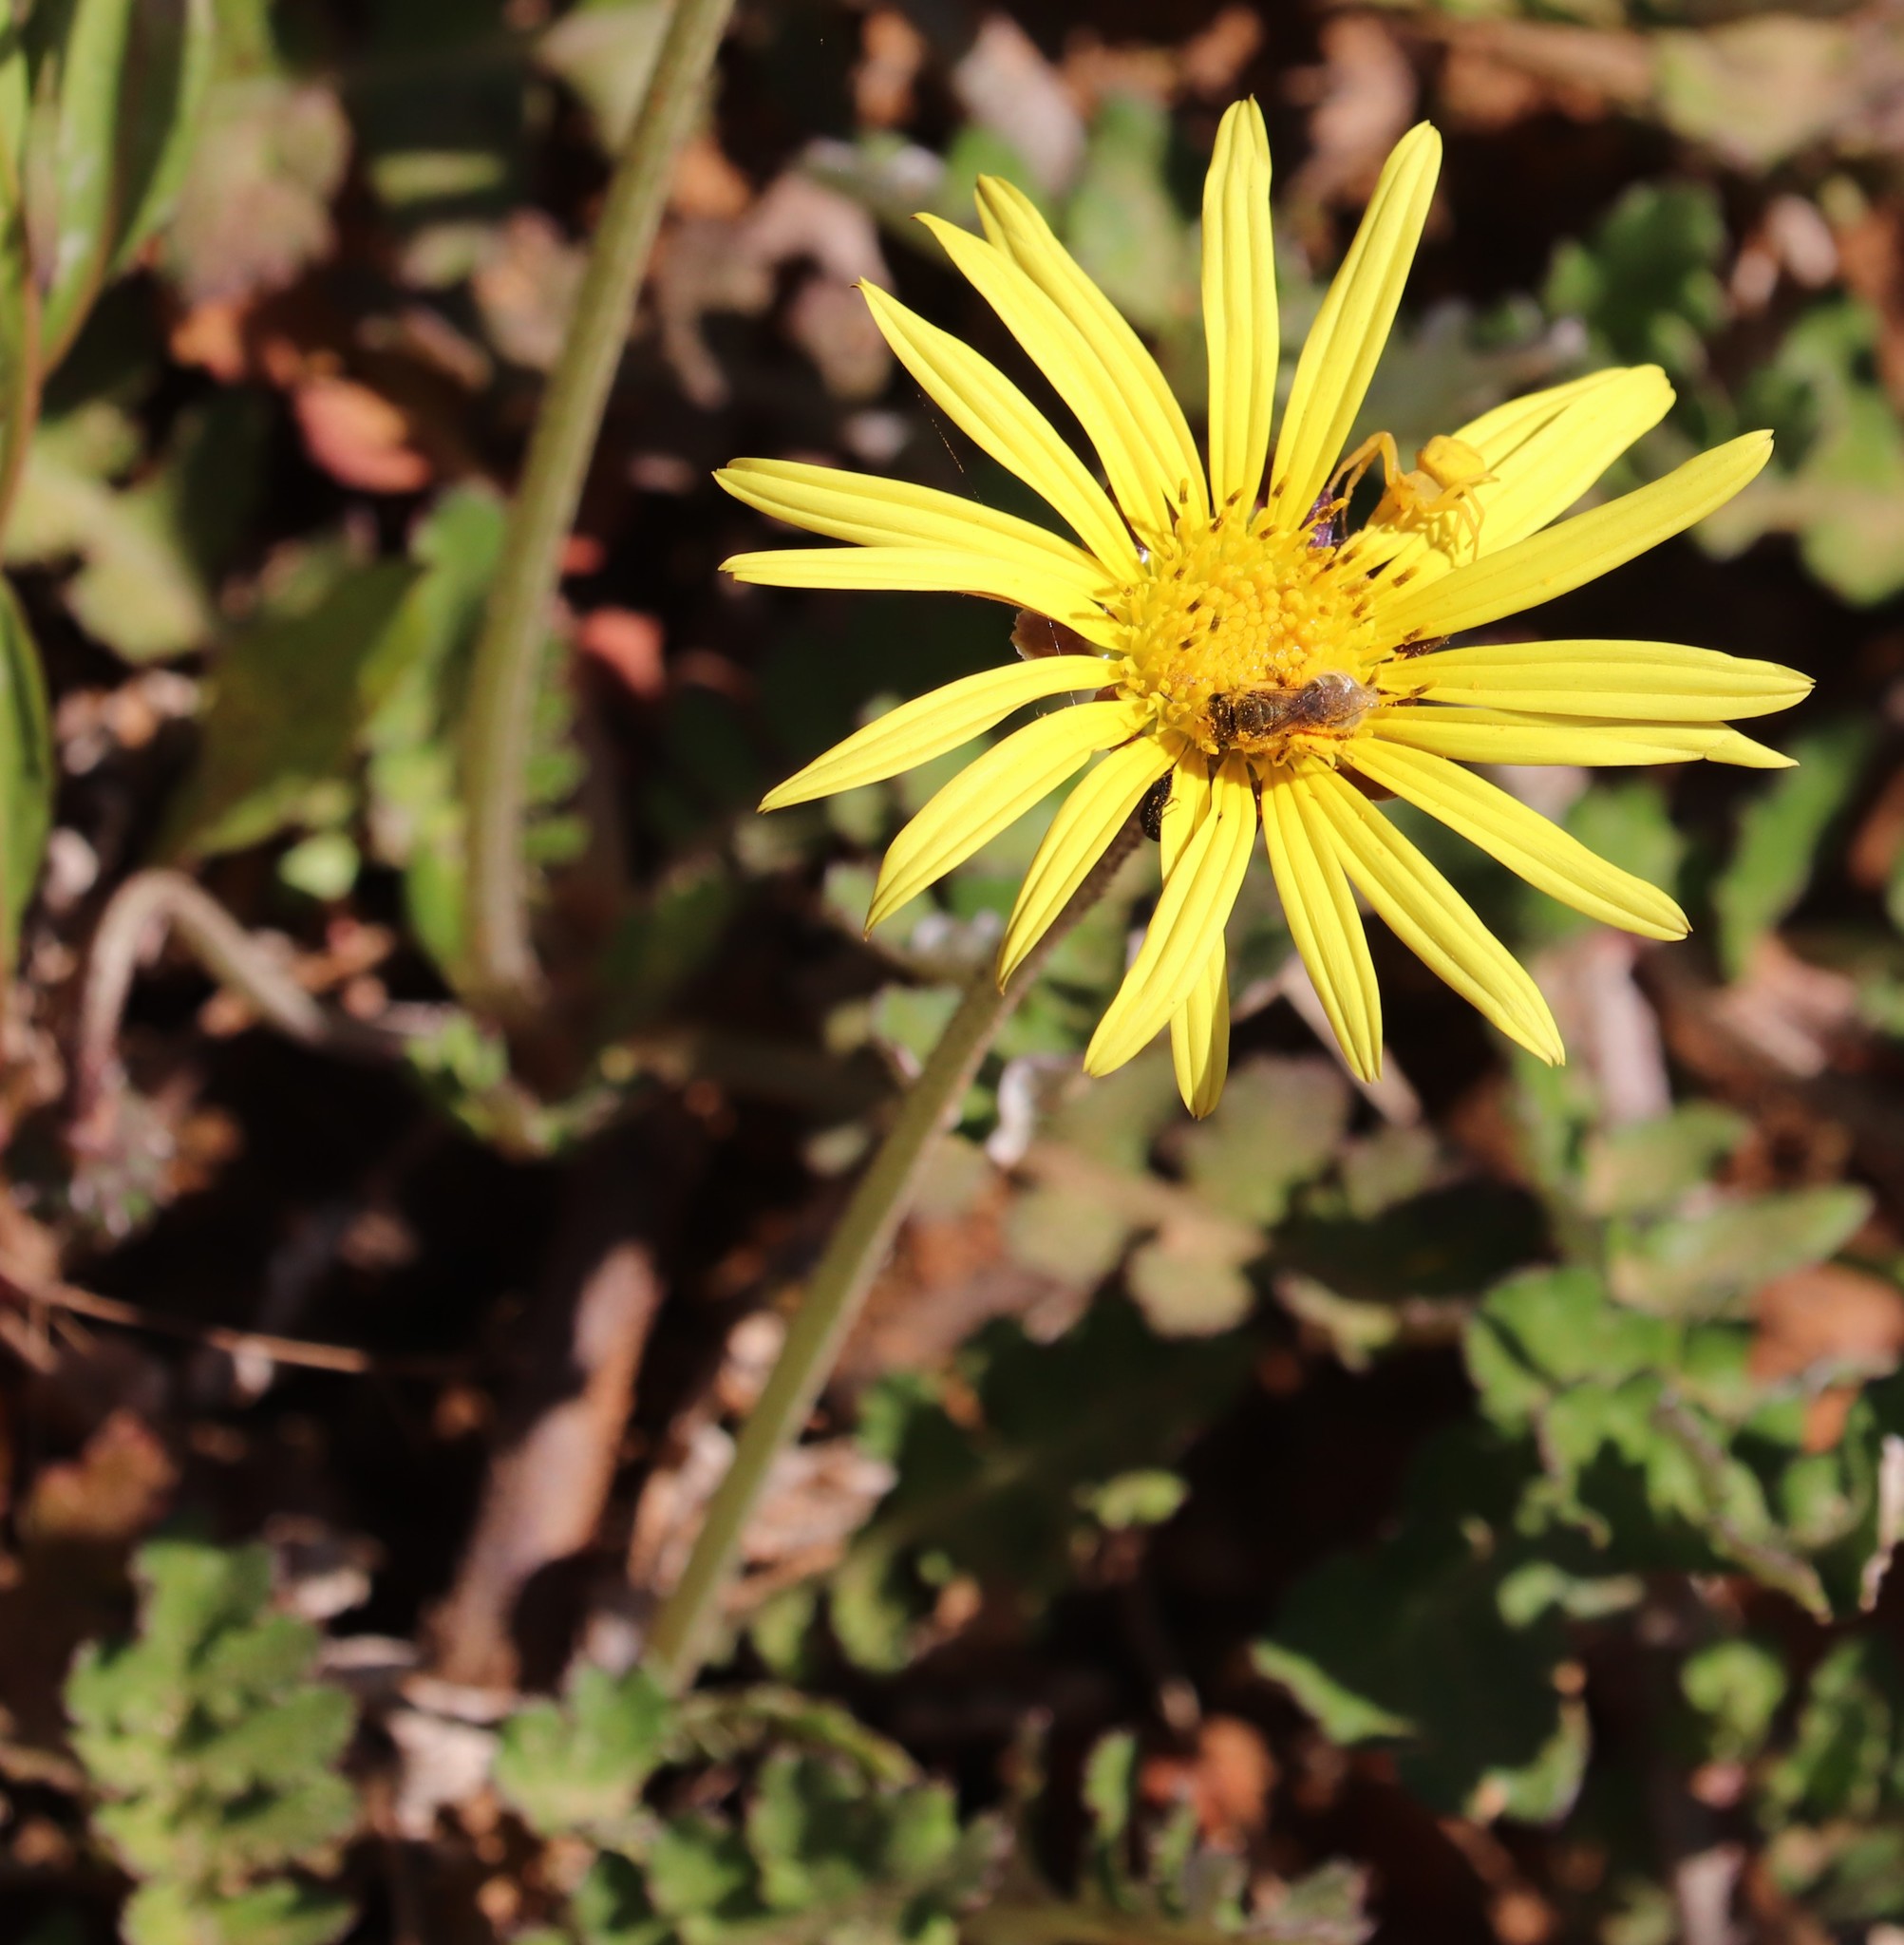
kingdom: Plantae
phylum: Tracheophyta
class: Magnoliopsida
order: Asterales
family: Asteraceae
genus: Arctotheca
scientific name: Arctotheca prostrata
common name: Capeweed
